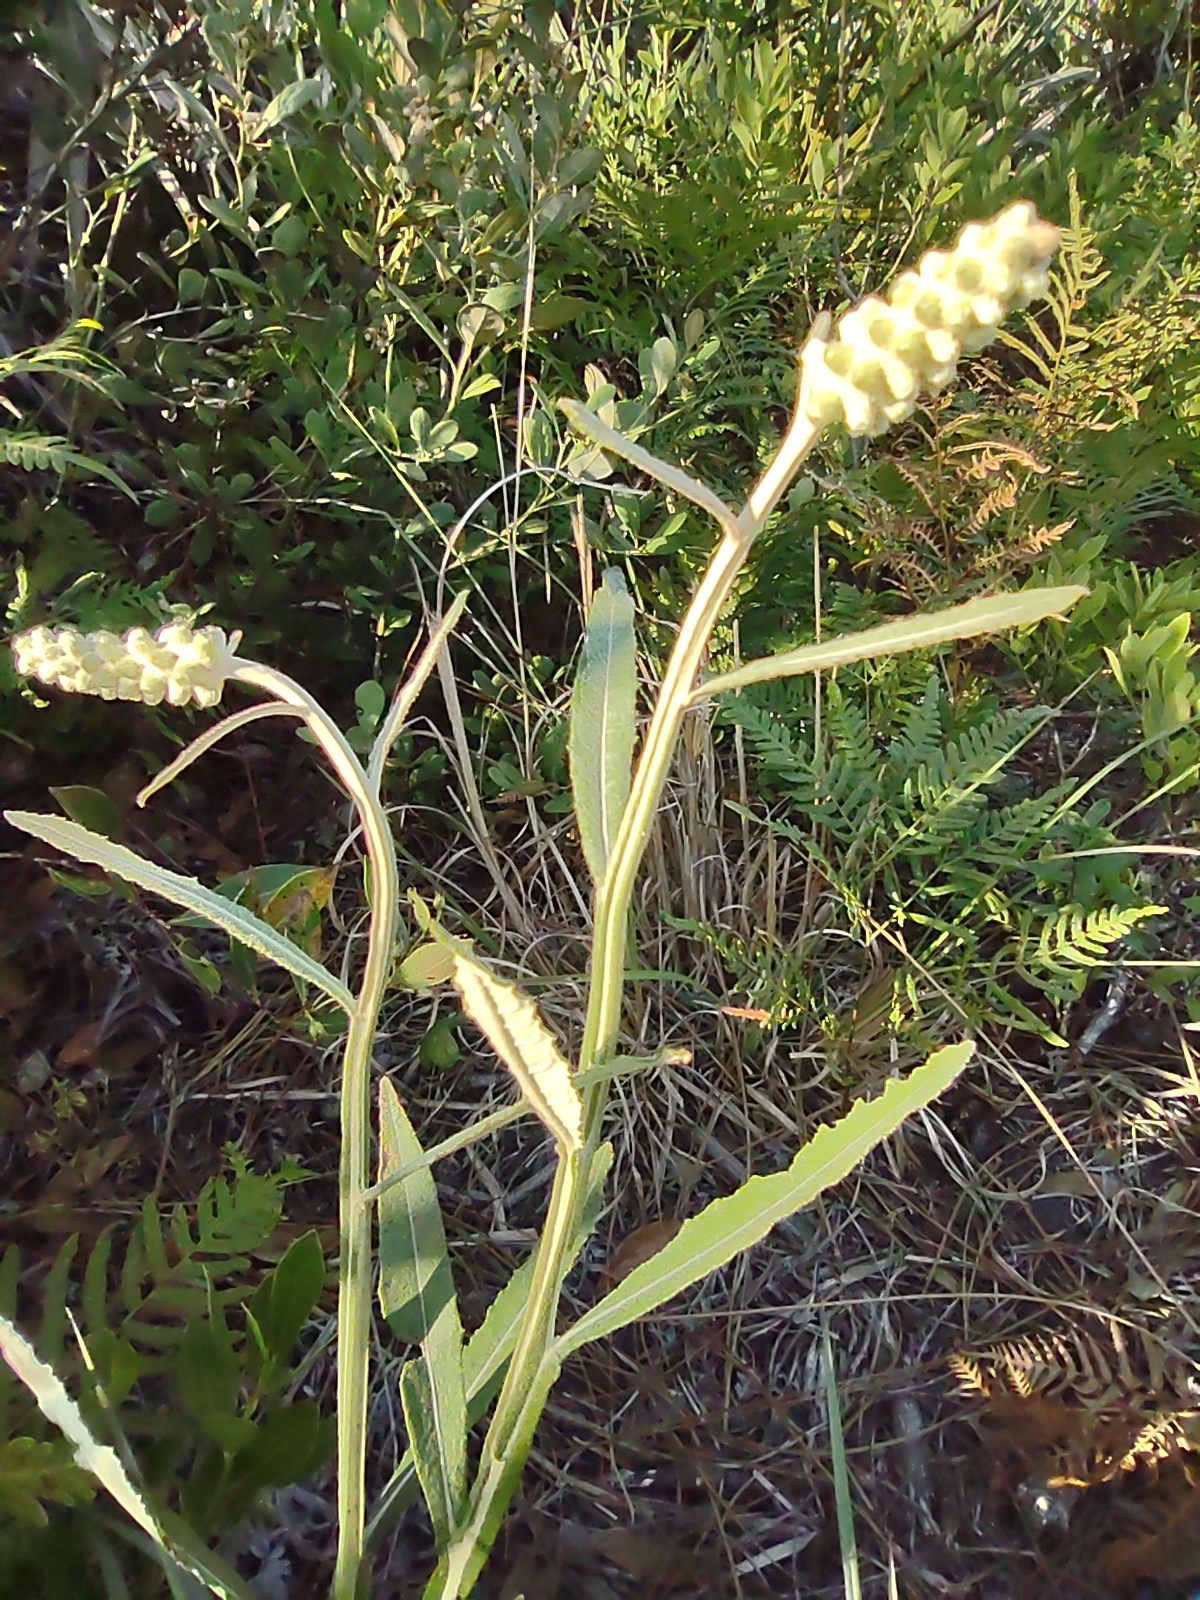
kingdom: Plantae
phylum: Tracheophyta
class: Magnoliopsida
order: Asterales
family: Asteraceae
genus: Pterocaulon
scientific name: Pterocaulon pycnostachyum
